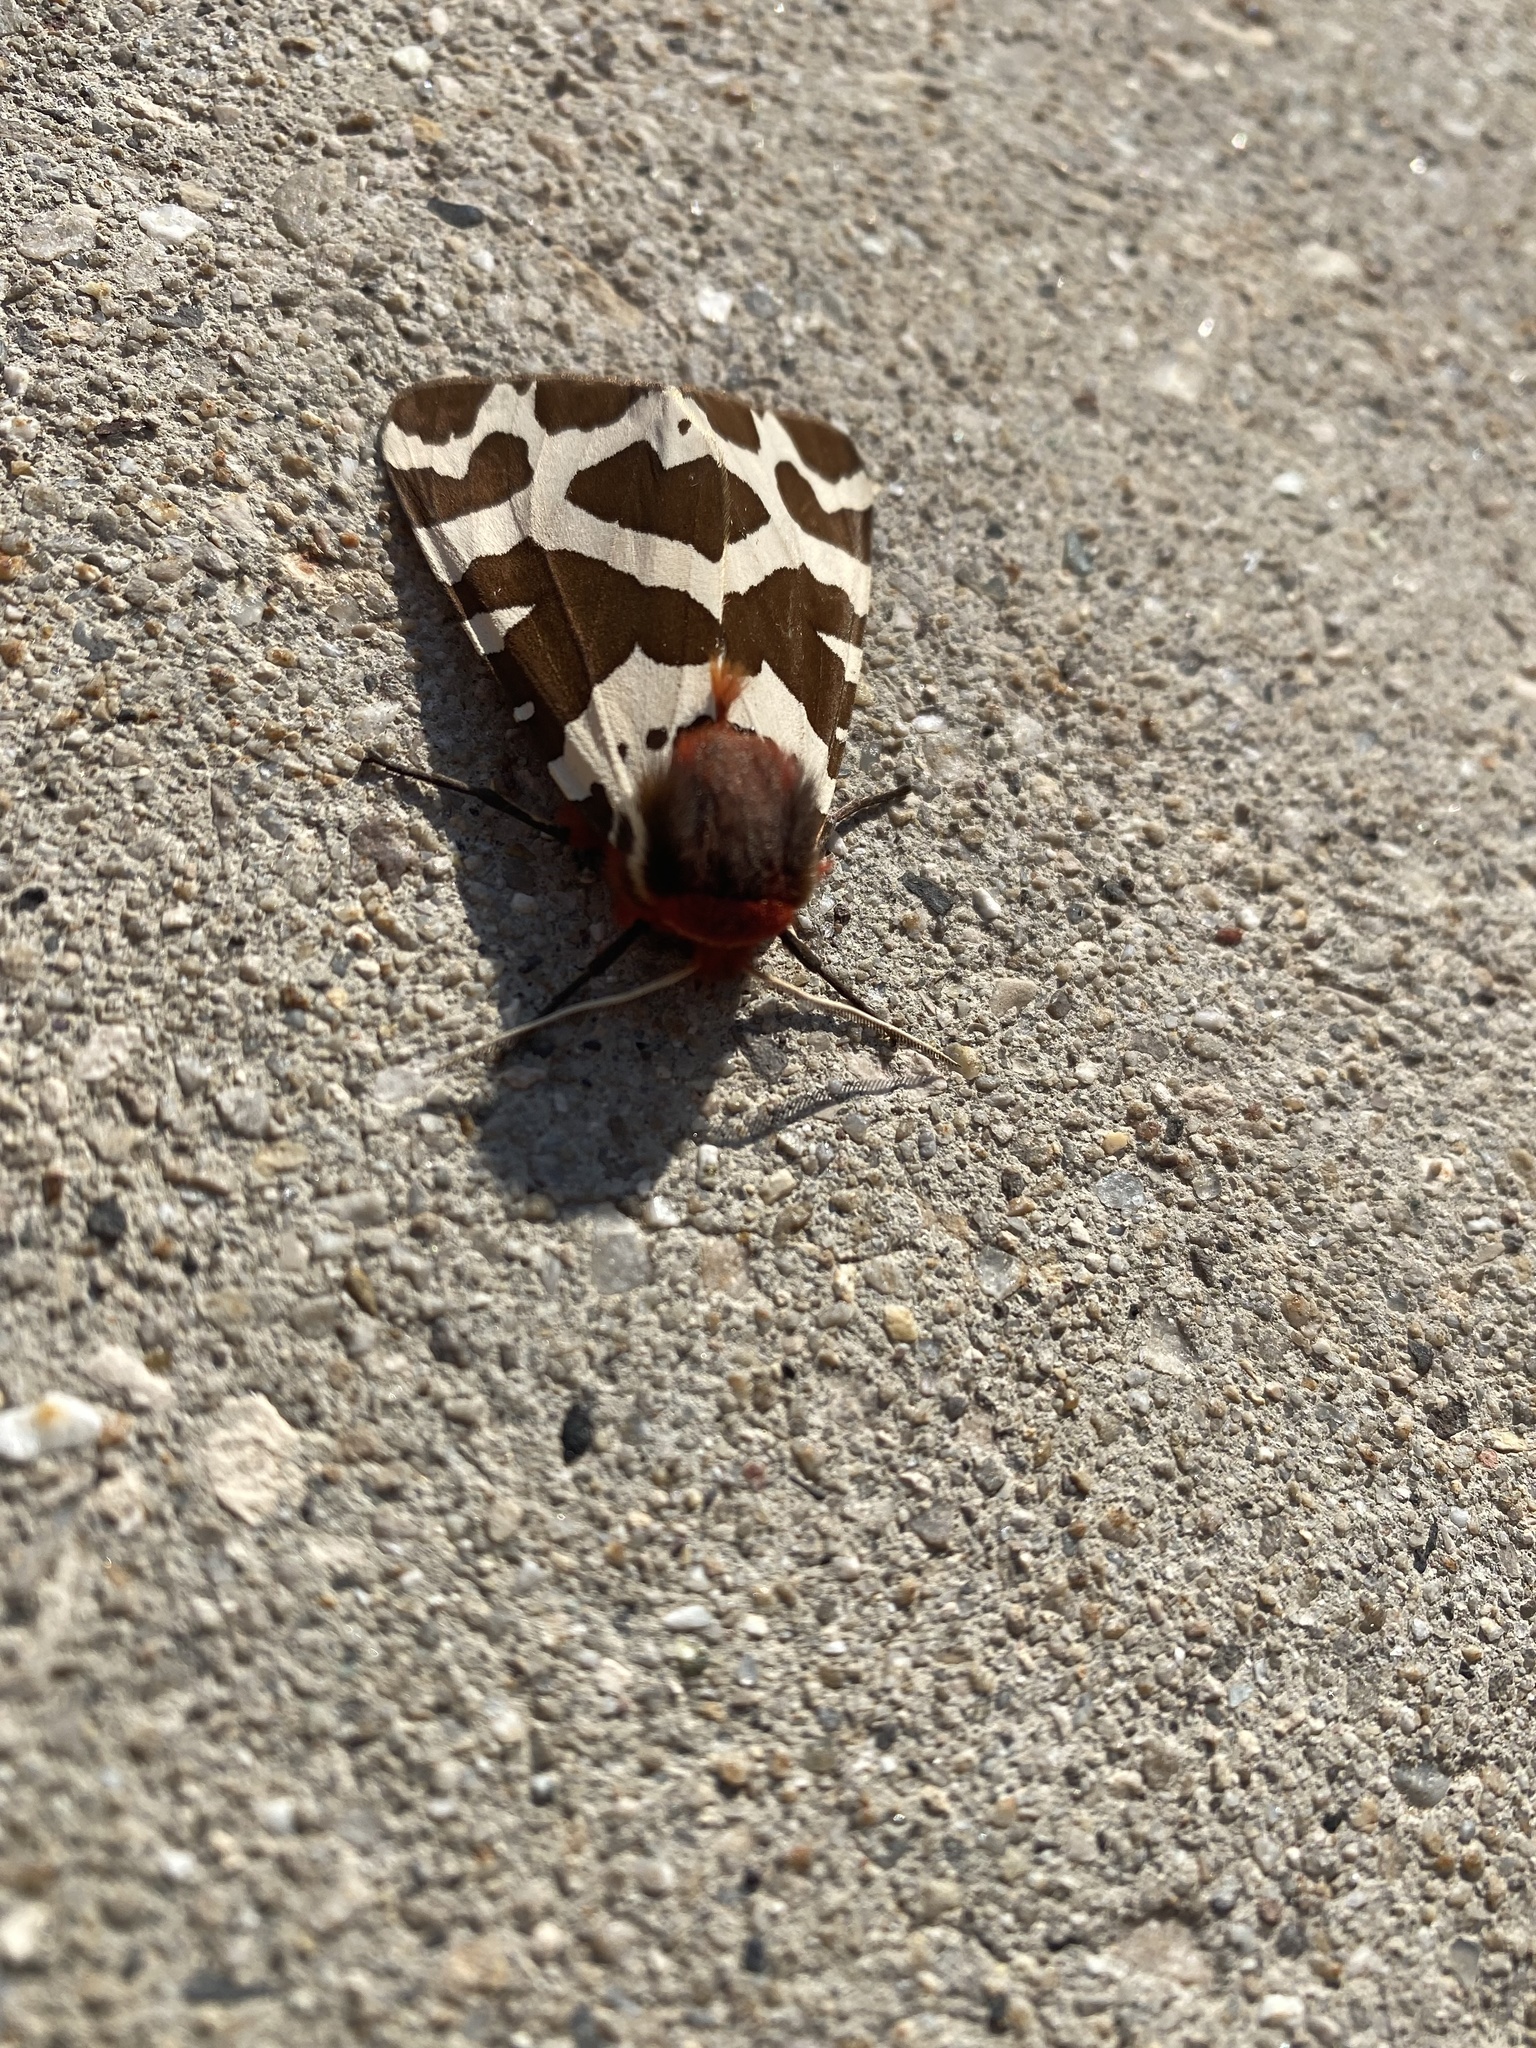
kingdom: Animalia
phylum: Arthropoda
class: Insecta
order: Lepidoptera
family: Erebidae
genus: Arctia
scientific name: Arctia caja
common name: Garden tiger
